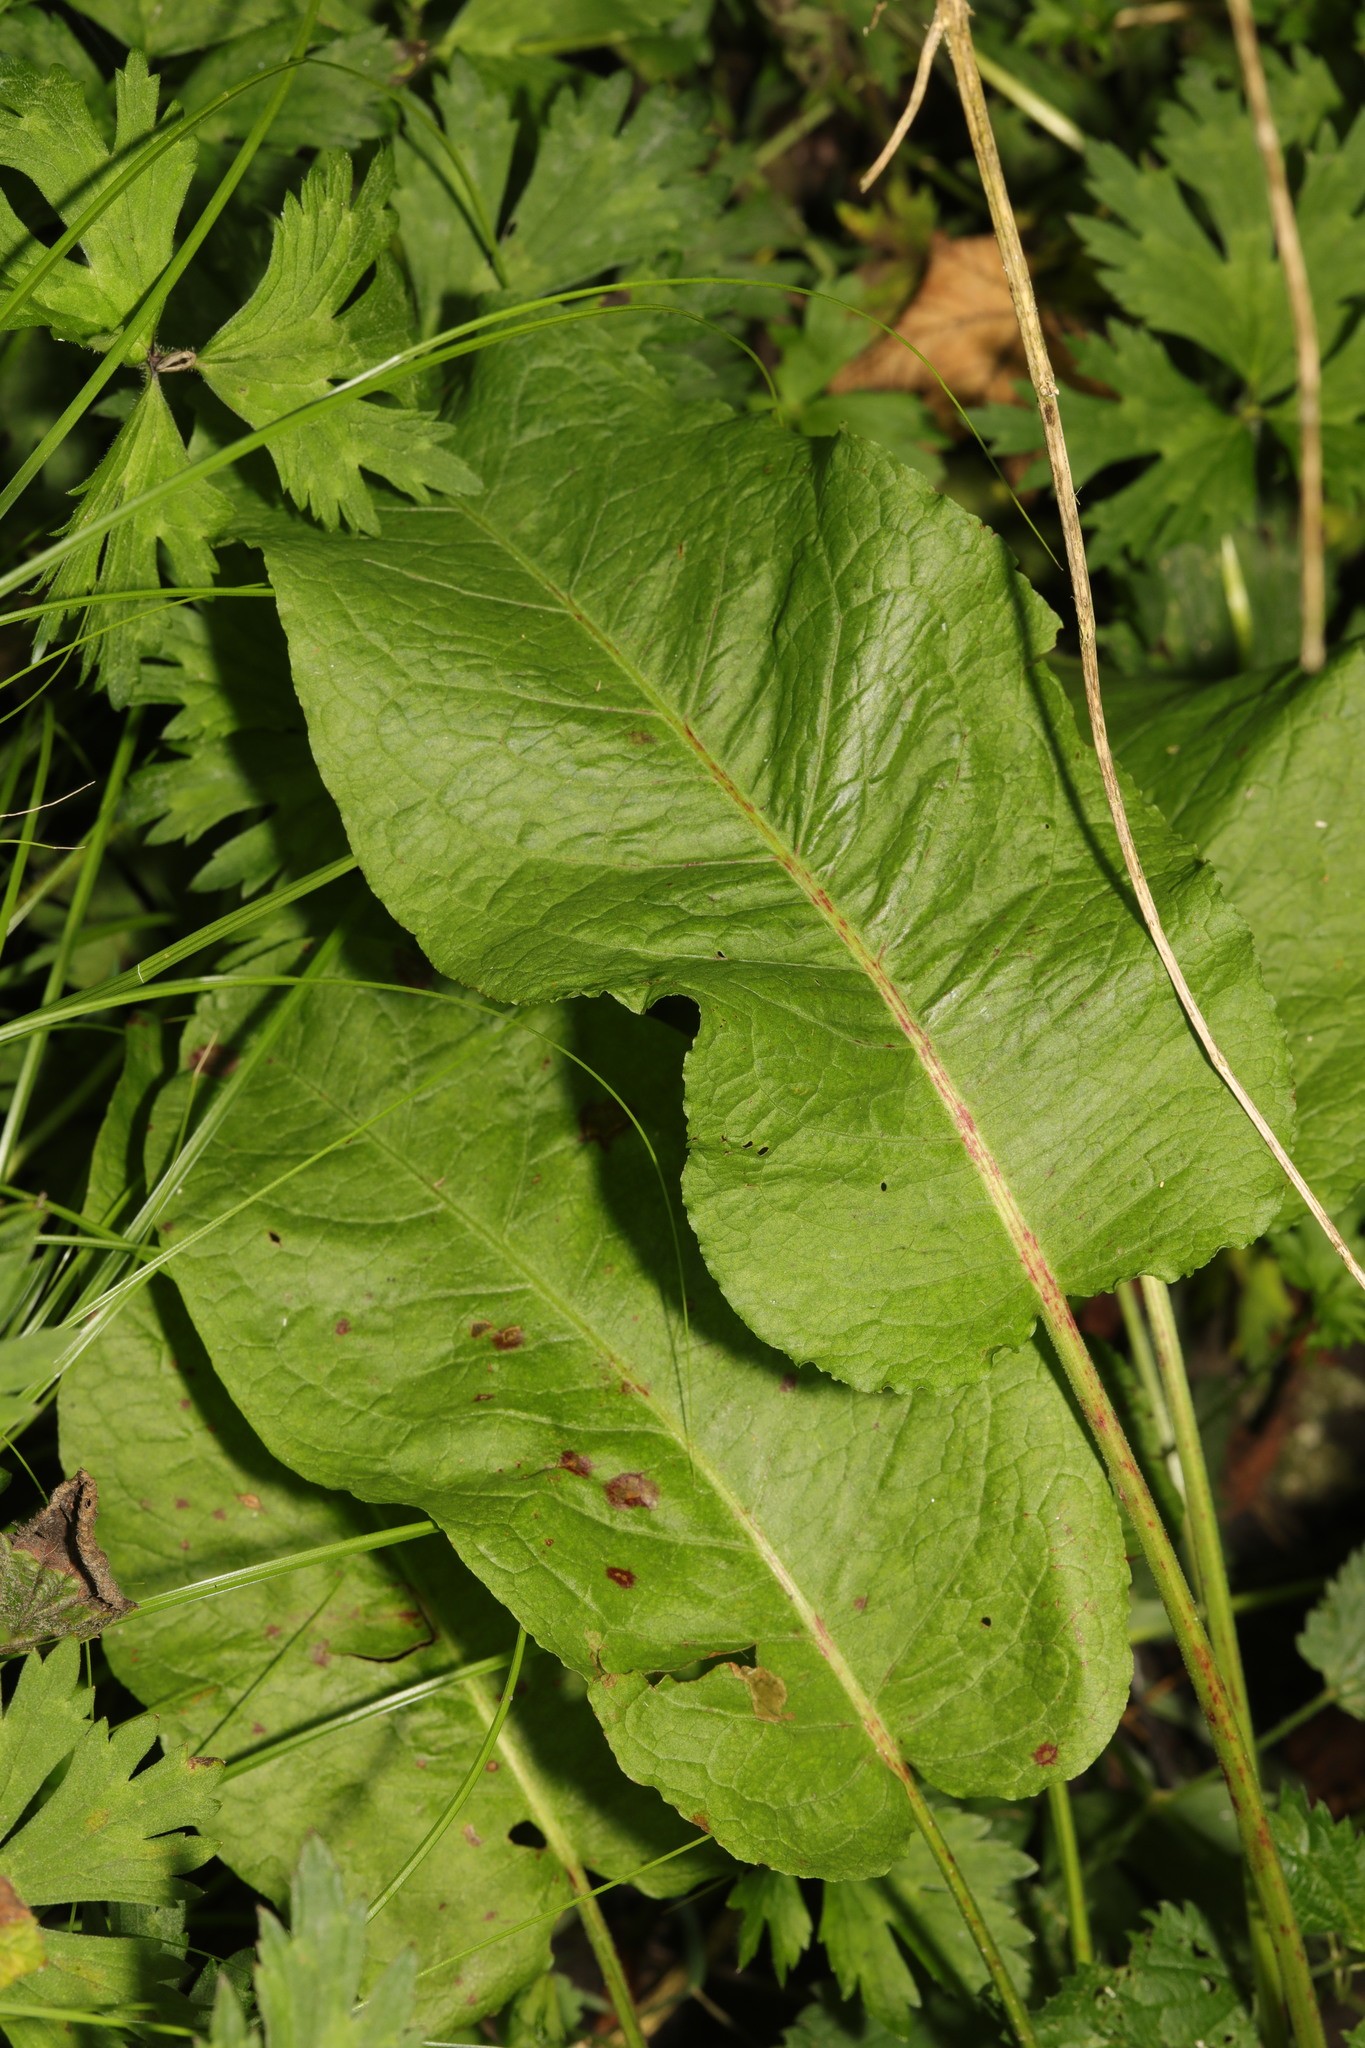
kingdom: Plantae
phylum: Tracheophyta
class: Magnoliopsida
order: Caryophyllales
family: Polygonaceae
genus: Rumex
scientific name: Rumex obtusifolius
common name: Bitter dock
